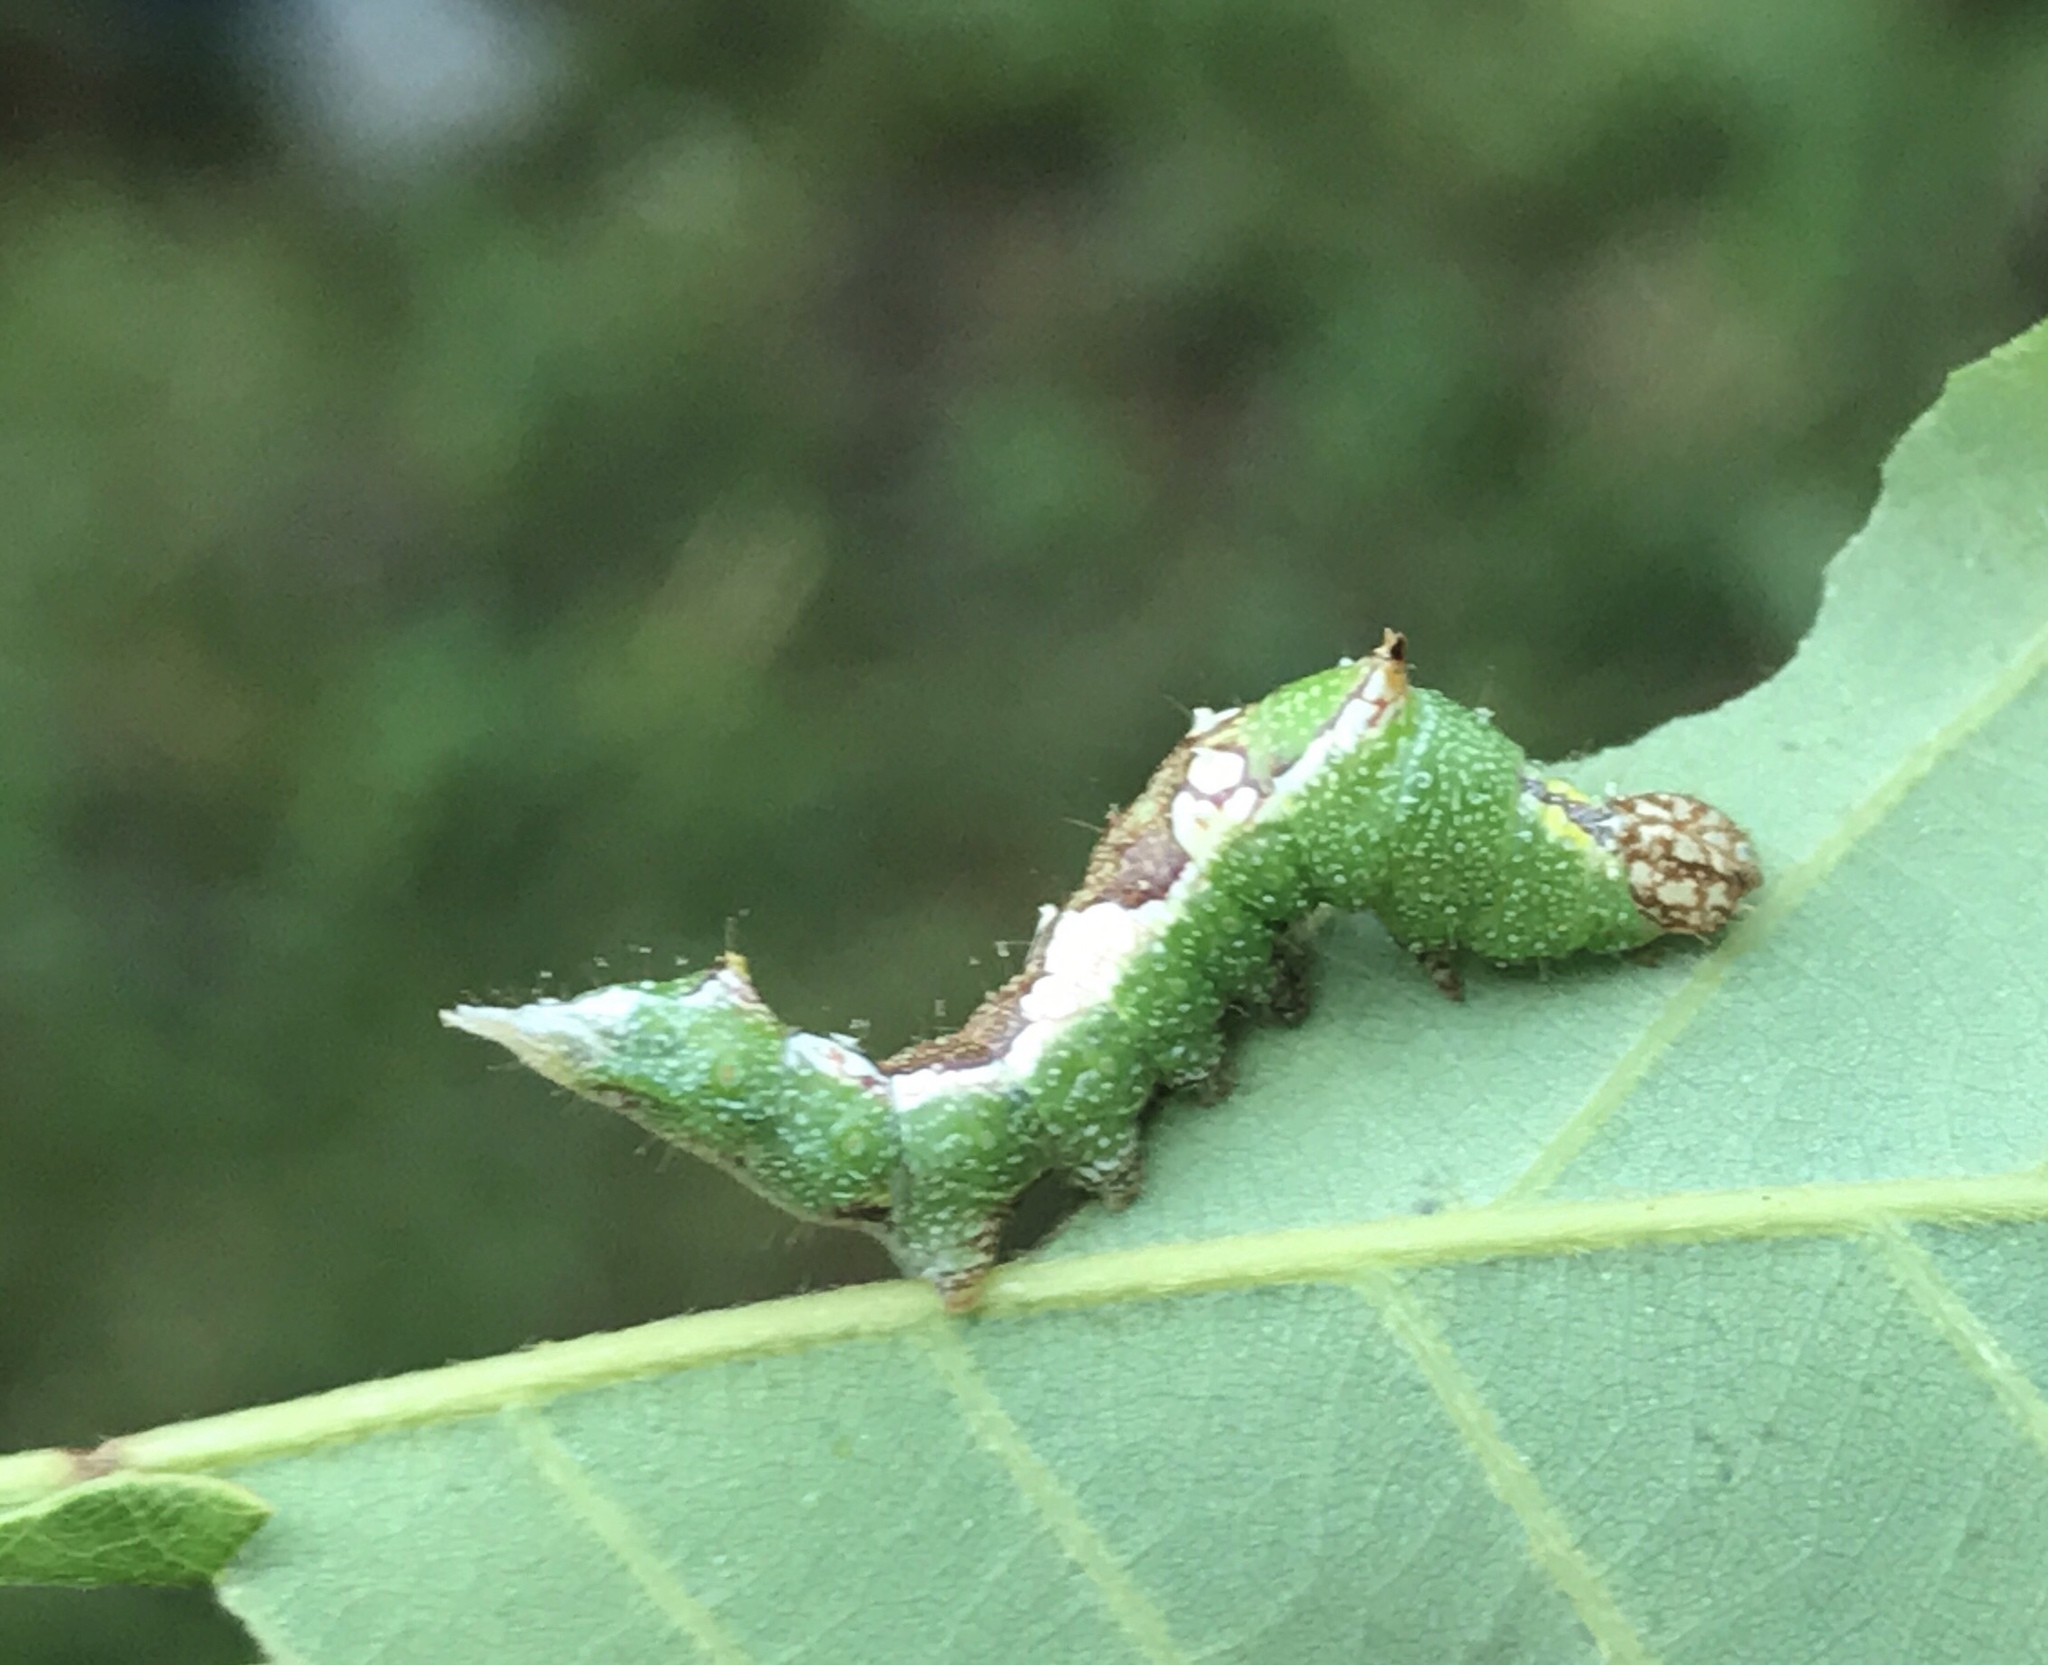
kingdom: Animalia
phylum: Arthropoda
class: Insecta
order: Lepidoptera
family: Notodontidae
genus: Hyparpax
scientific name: Hyparpax aurora
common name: Pink prominent
